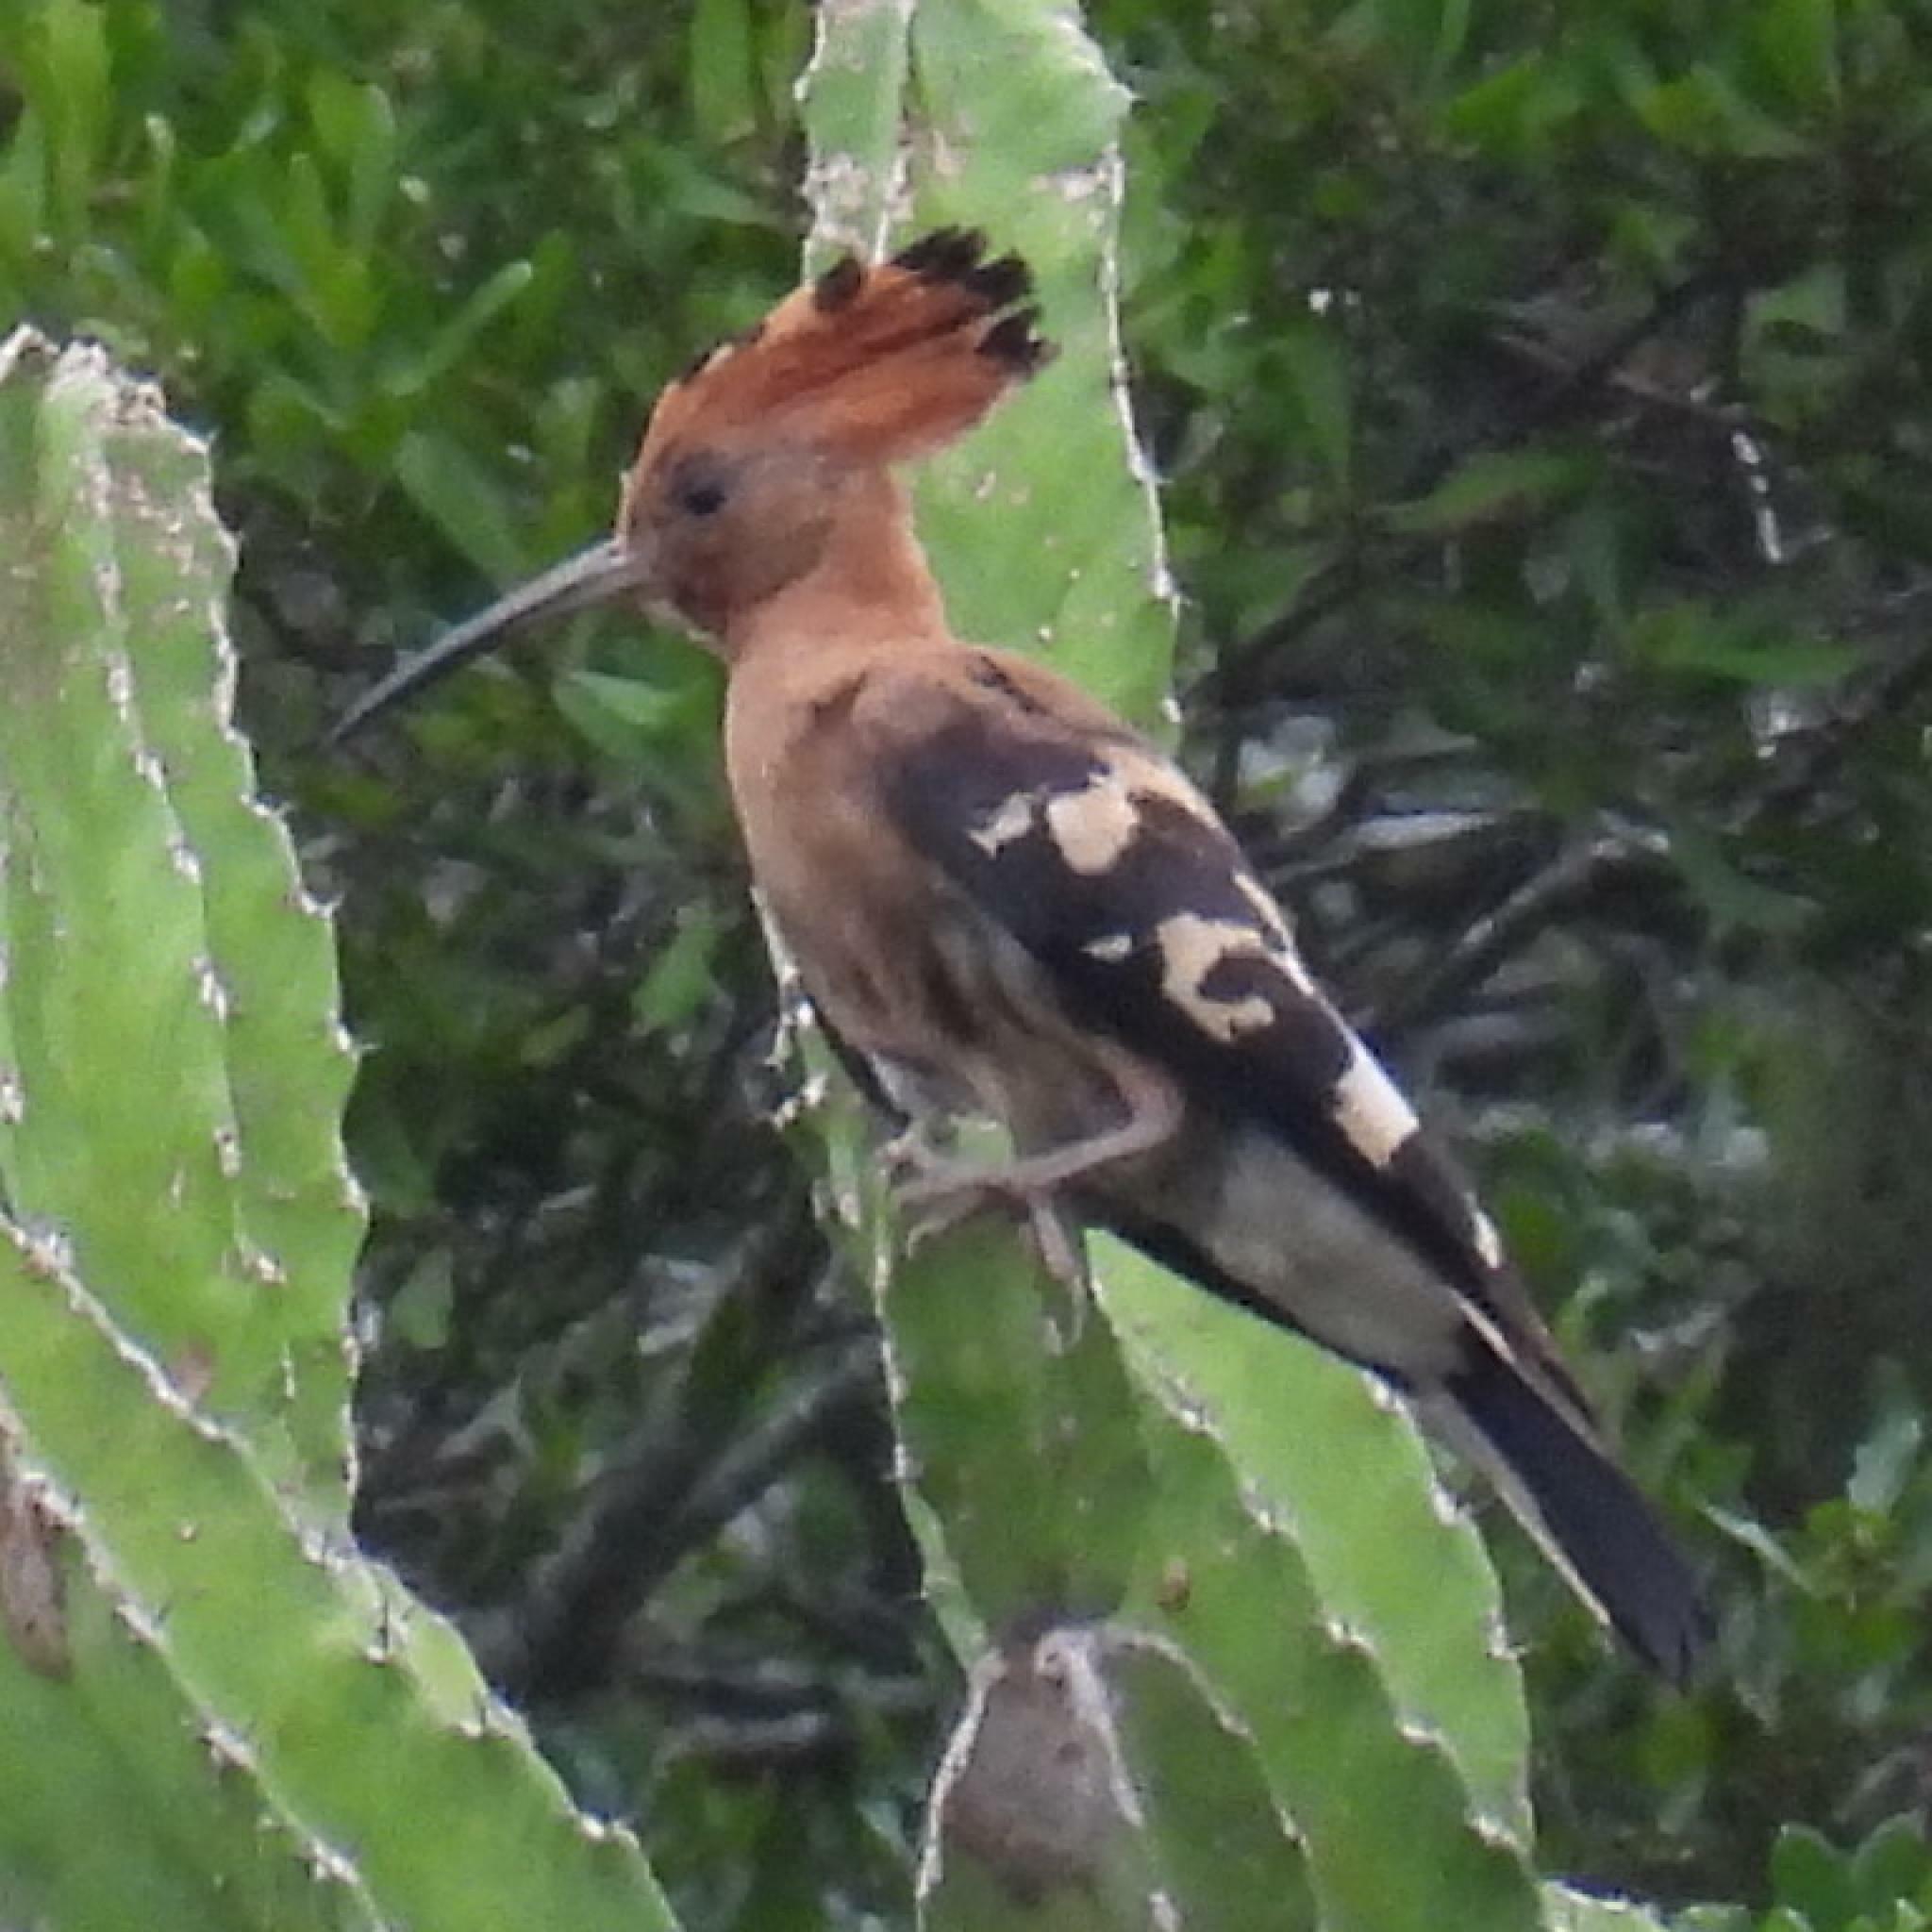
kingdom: Animalia
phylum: Chordata
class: Aves
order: Bucerotiformes
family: Upupidae
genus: Upupa
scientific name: Upupa africana
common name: African hoopoe
